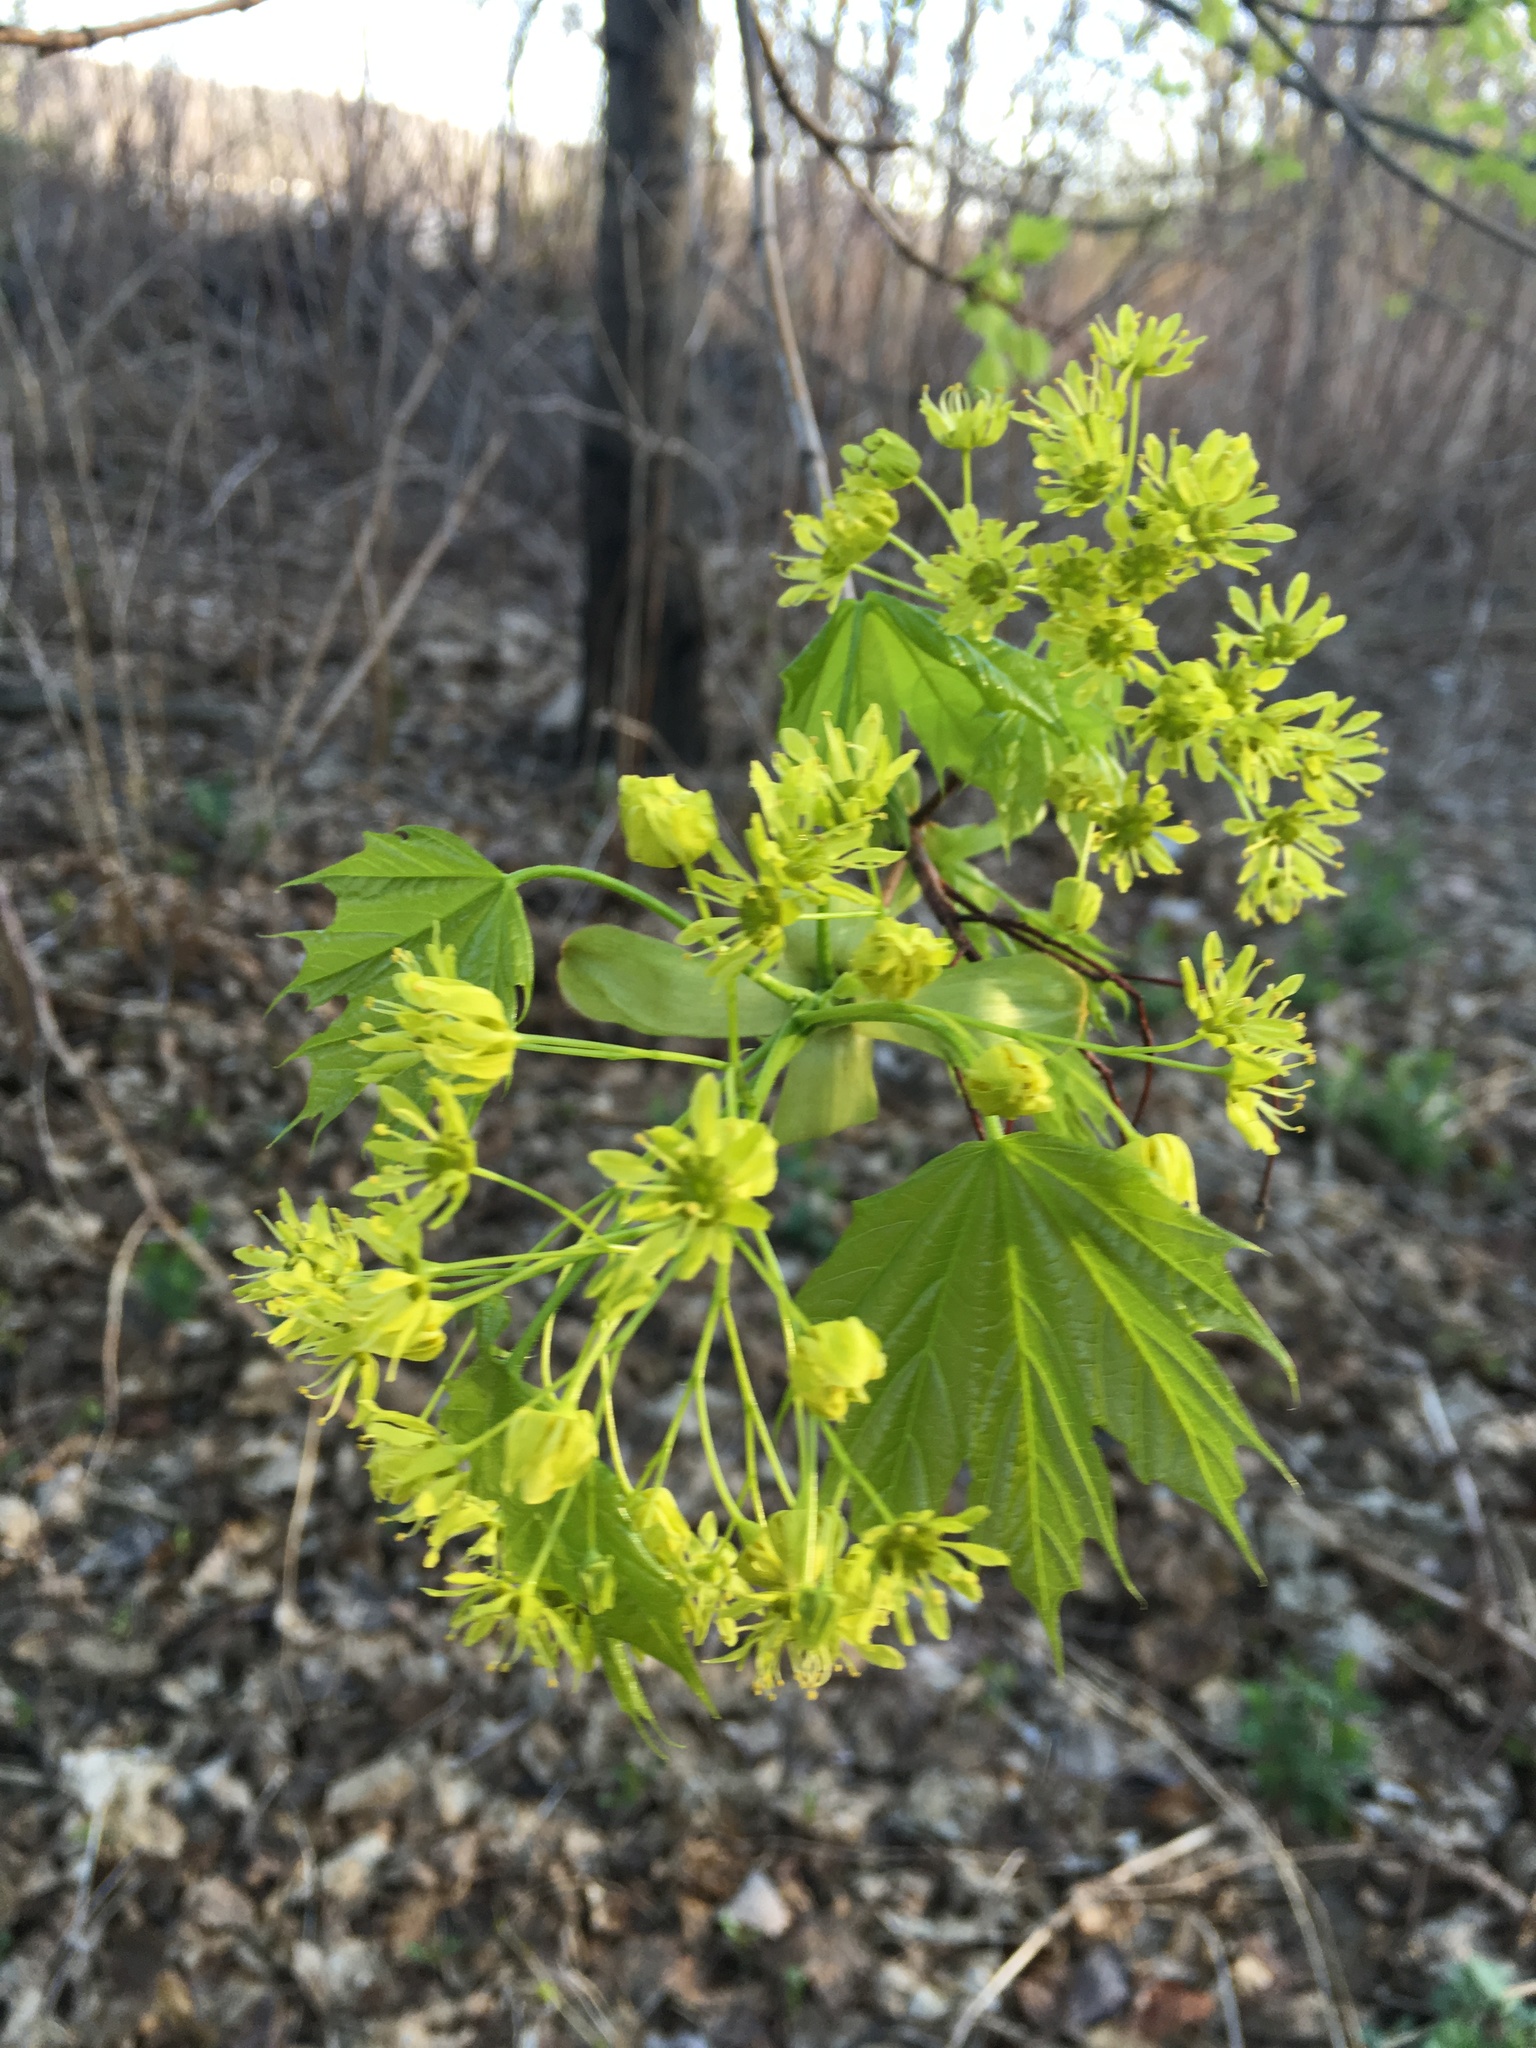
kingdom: Plantae
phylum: Tracheophyta
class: Magnoliopsida
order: Sapindales
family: Sapindaceae
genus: Acer
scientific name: Acer platanoides
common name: Norway maple
